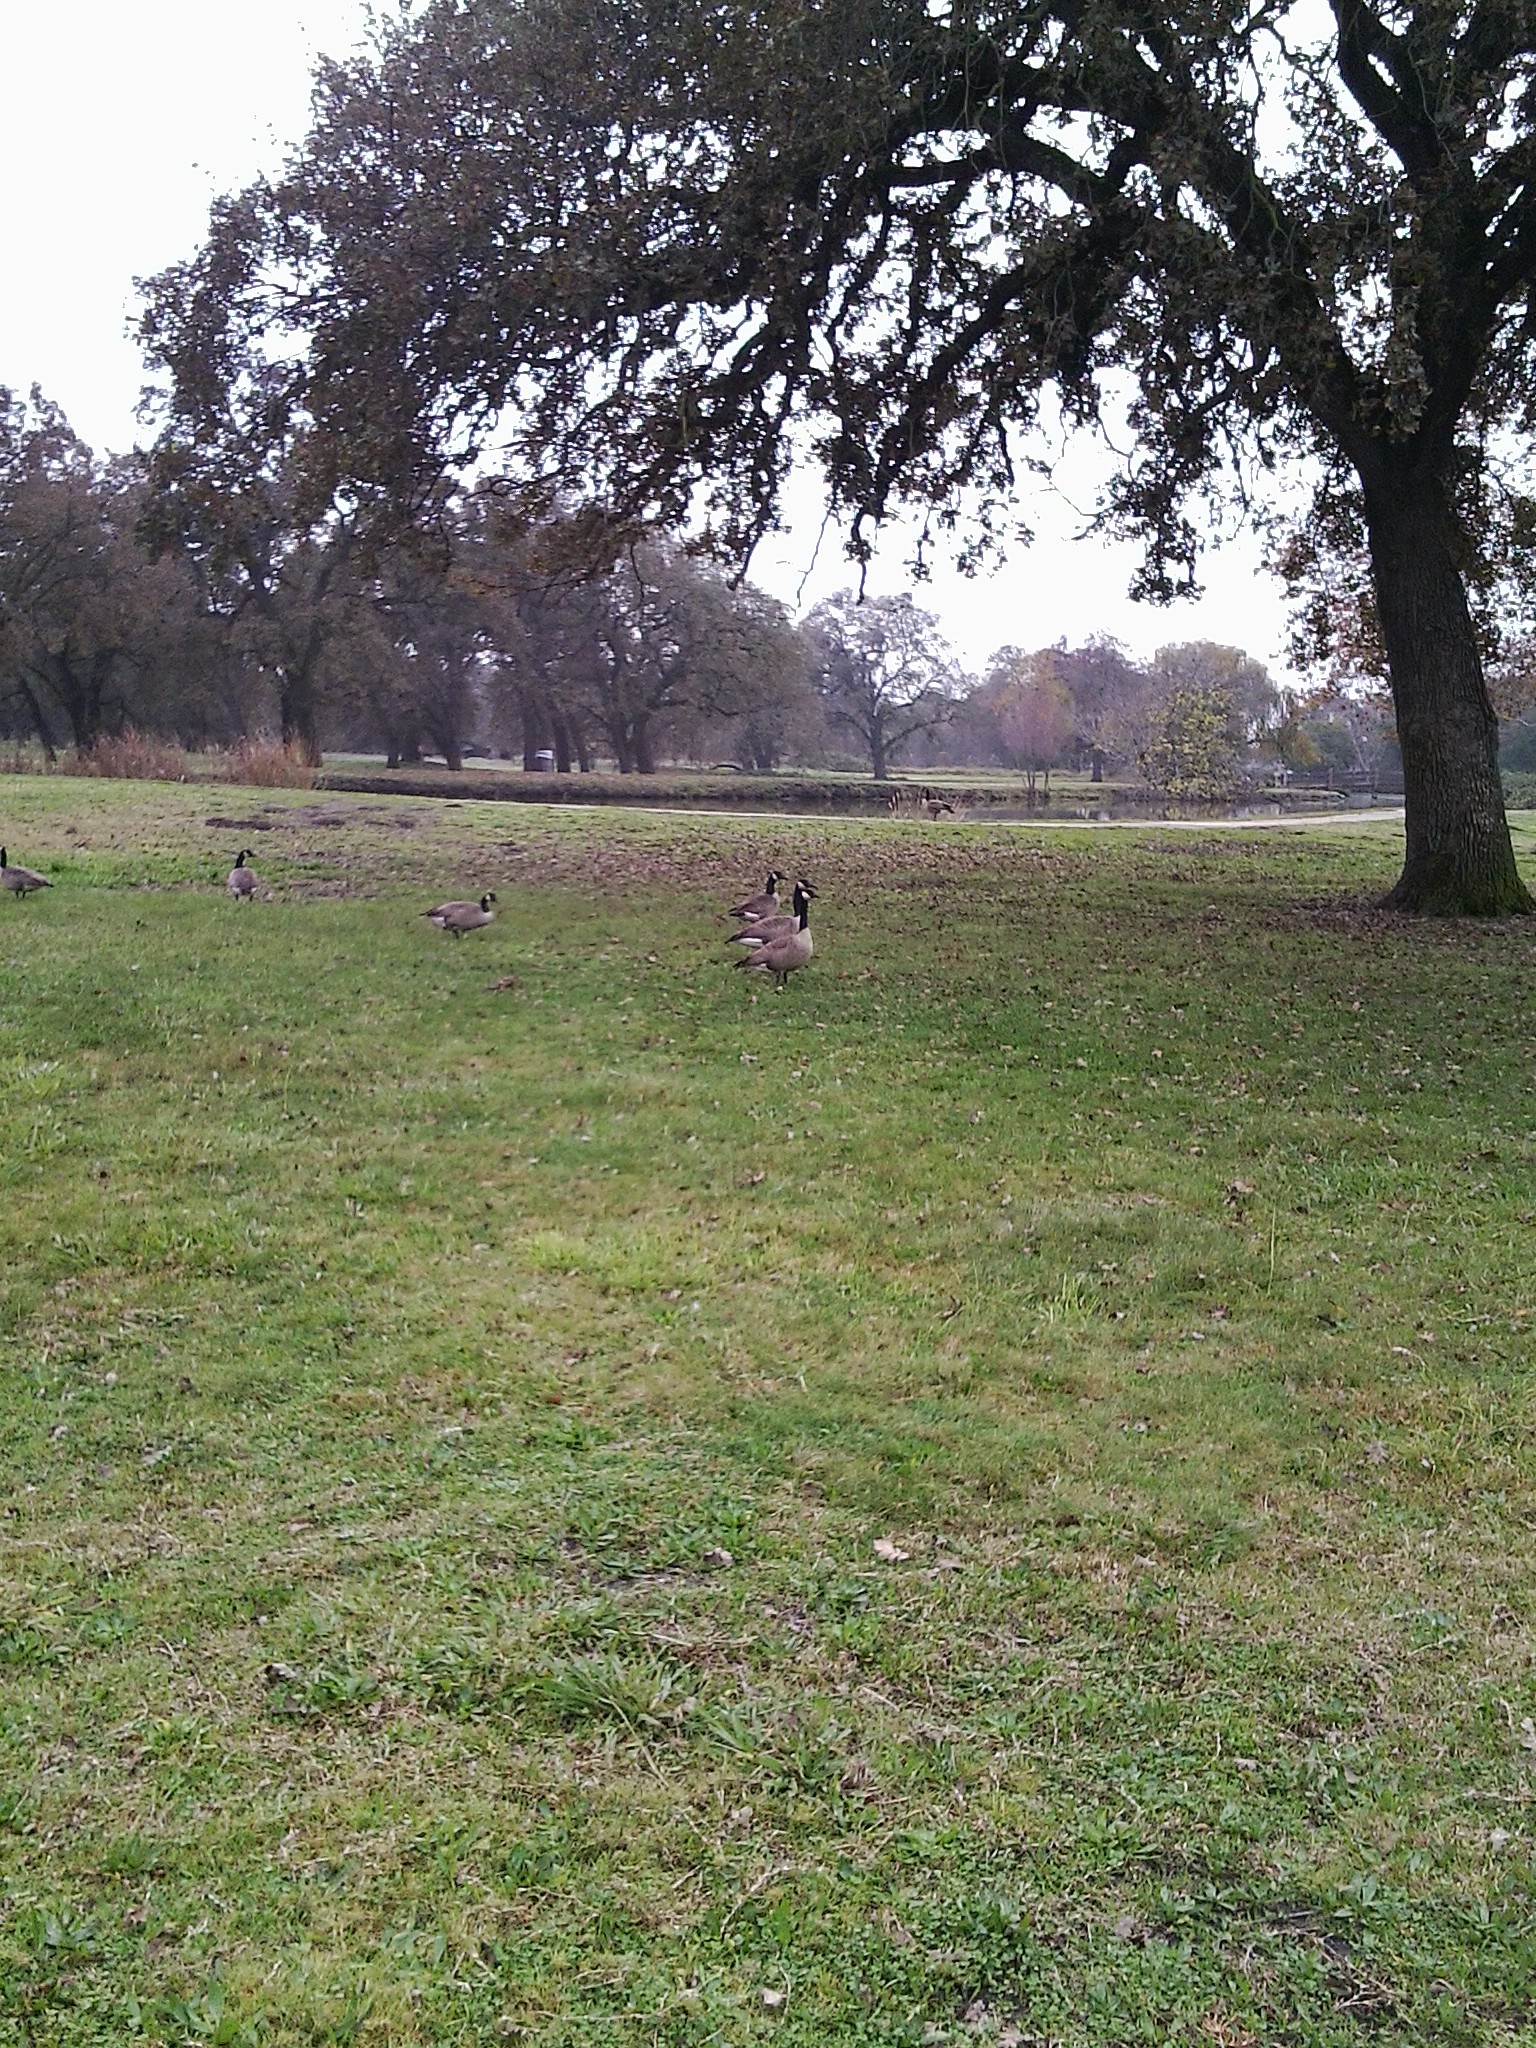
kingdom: Animalia
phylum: Chordata
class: Aves
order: Anseriformes
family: Anatidae
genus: Branta
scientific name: Branta canadensis
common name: Canada goose
